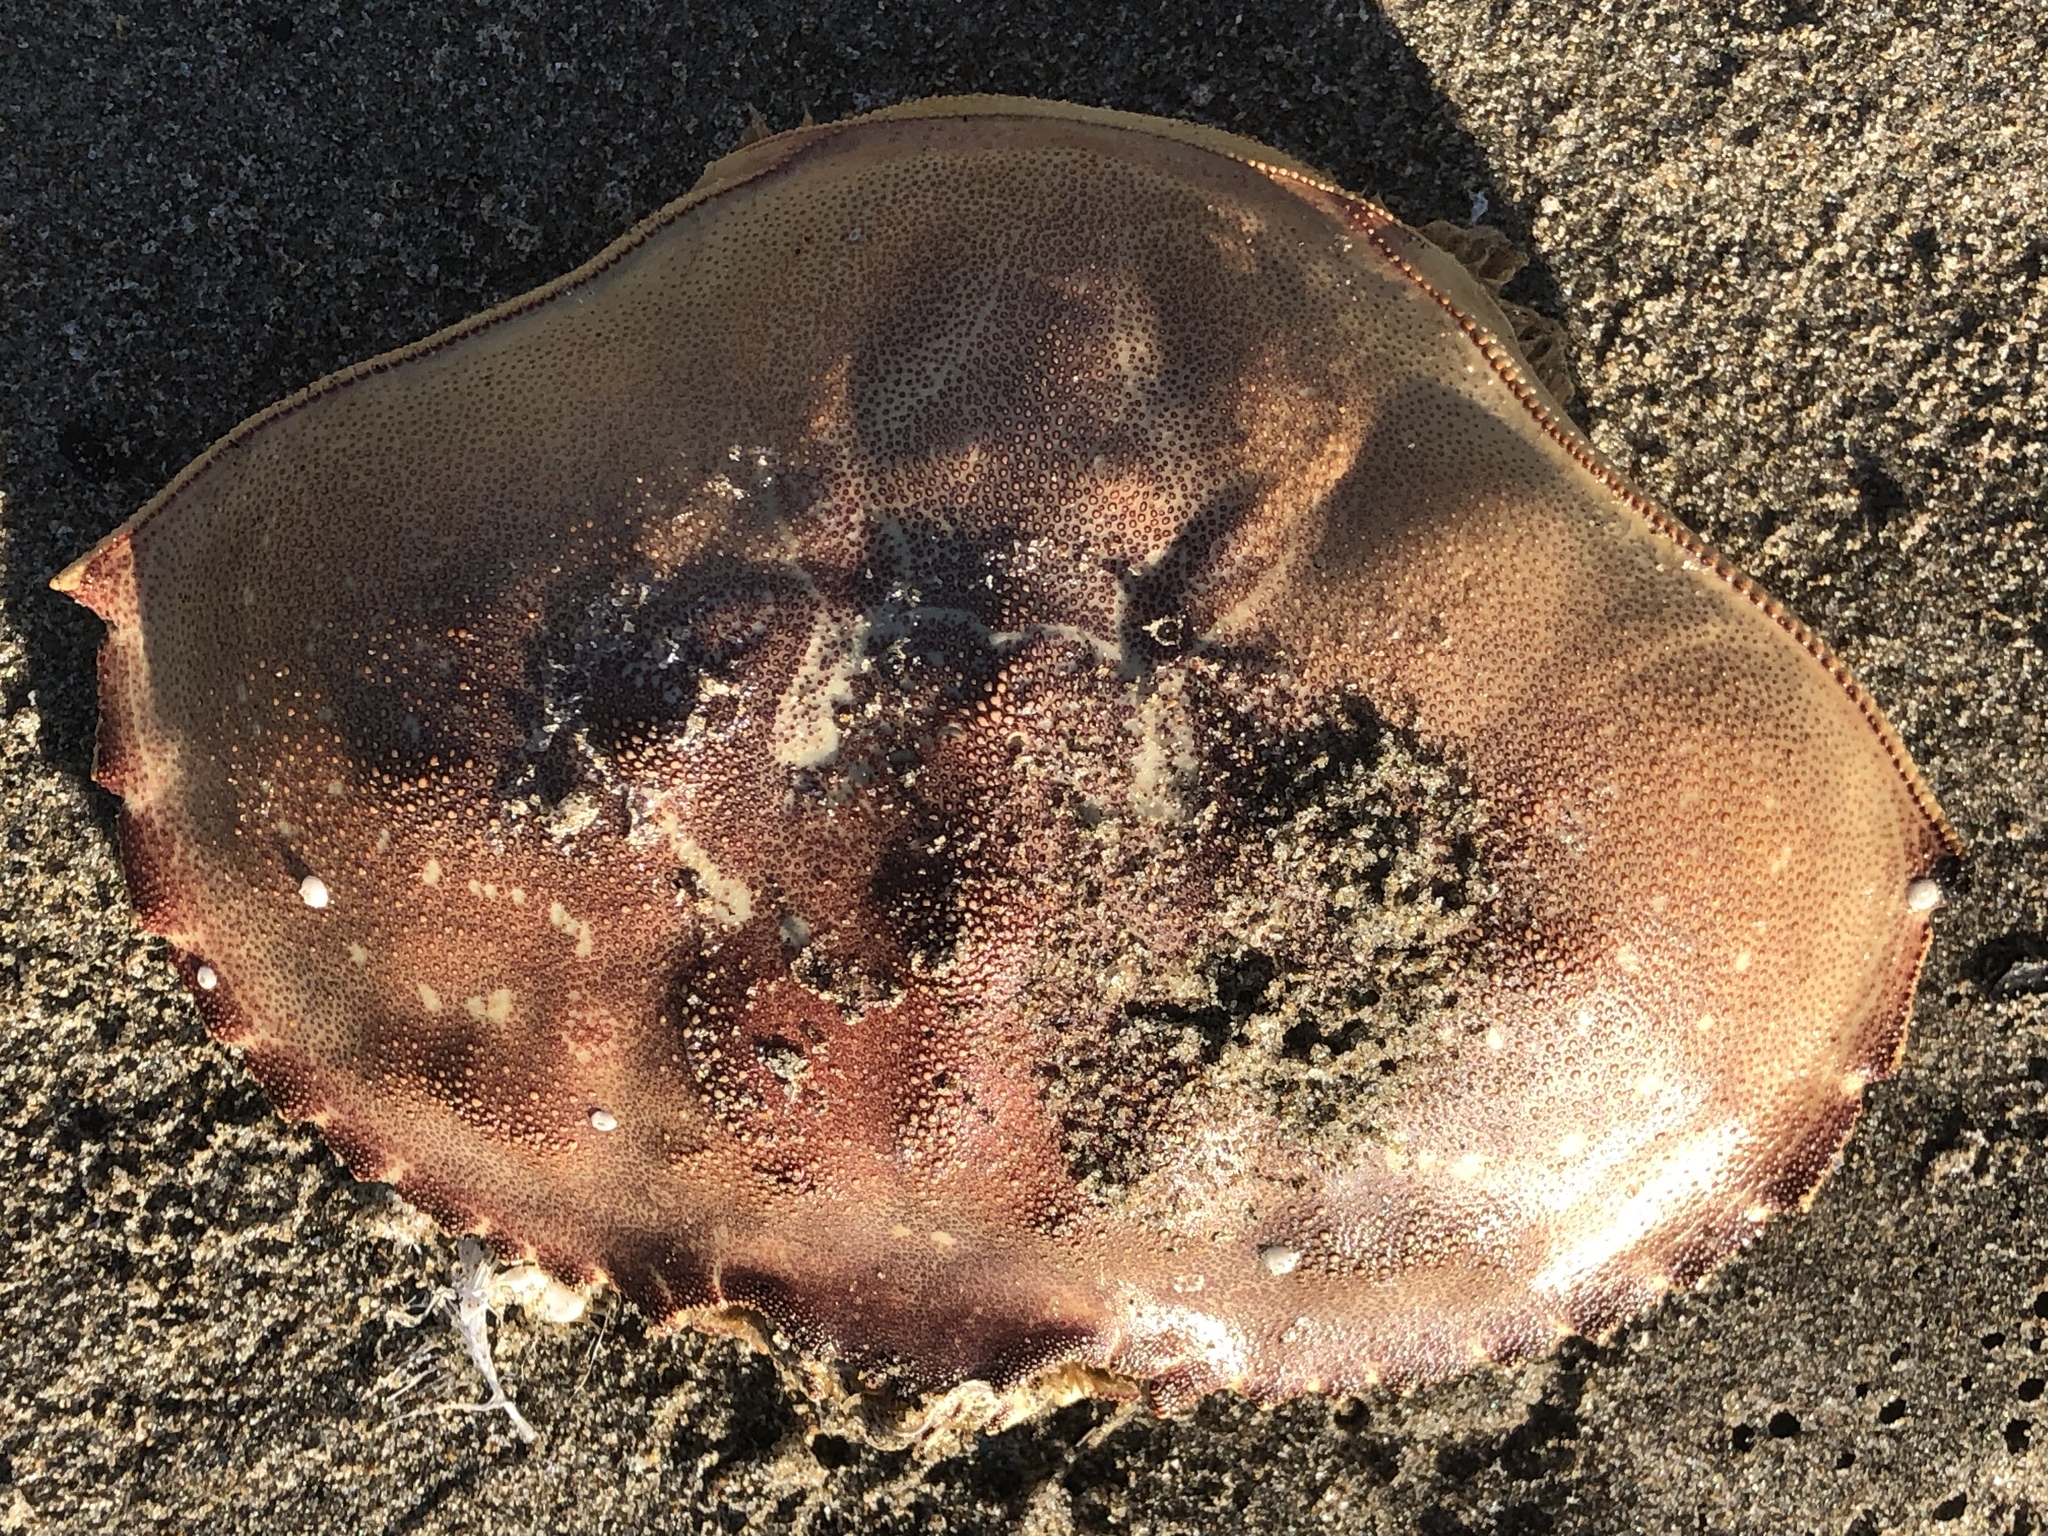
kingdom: Animalia
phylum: Arthropoda
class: Malacostraca
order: Decapoda
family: Cancridae
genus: Metacarcinus
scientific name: Metacarcinus magister
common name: Californian crab
